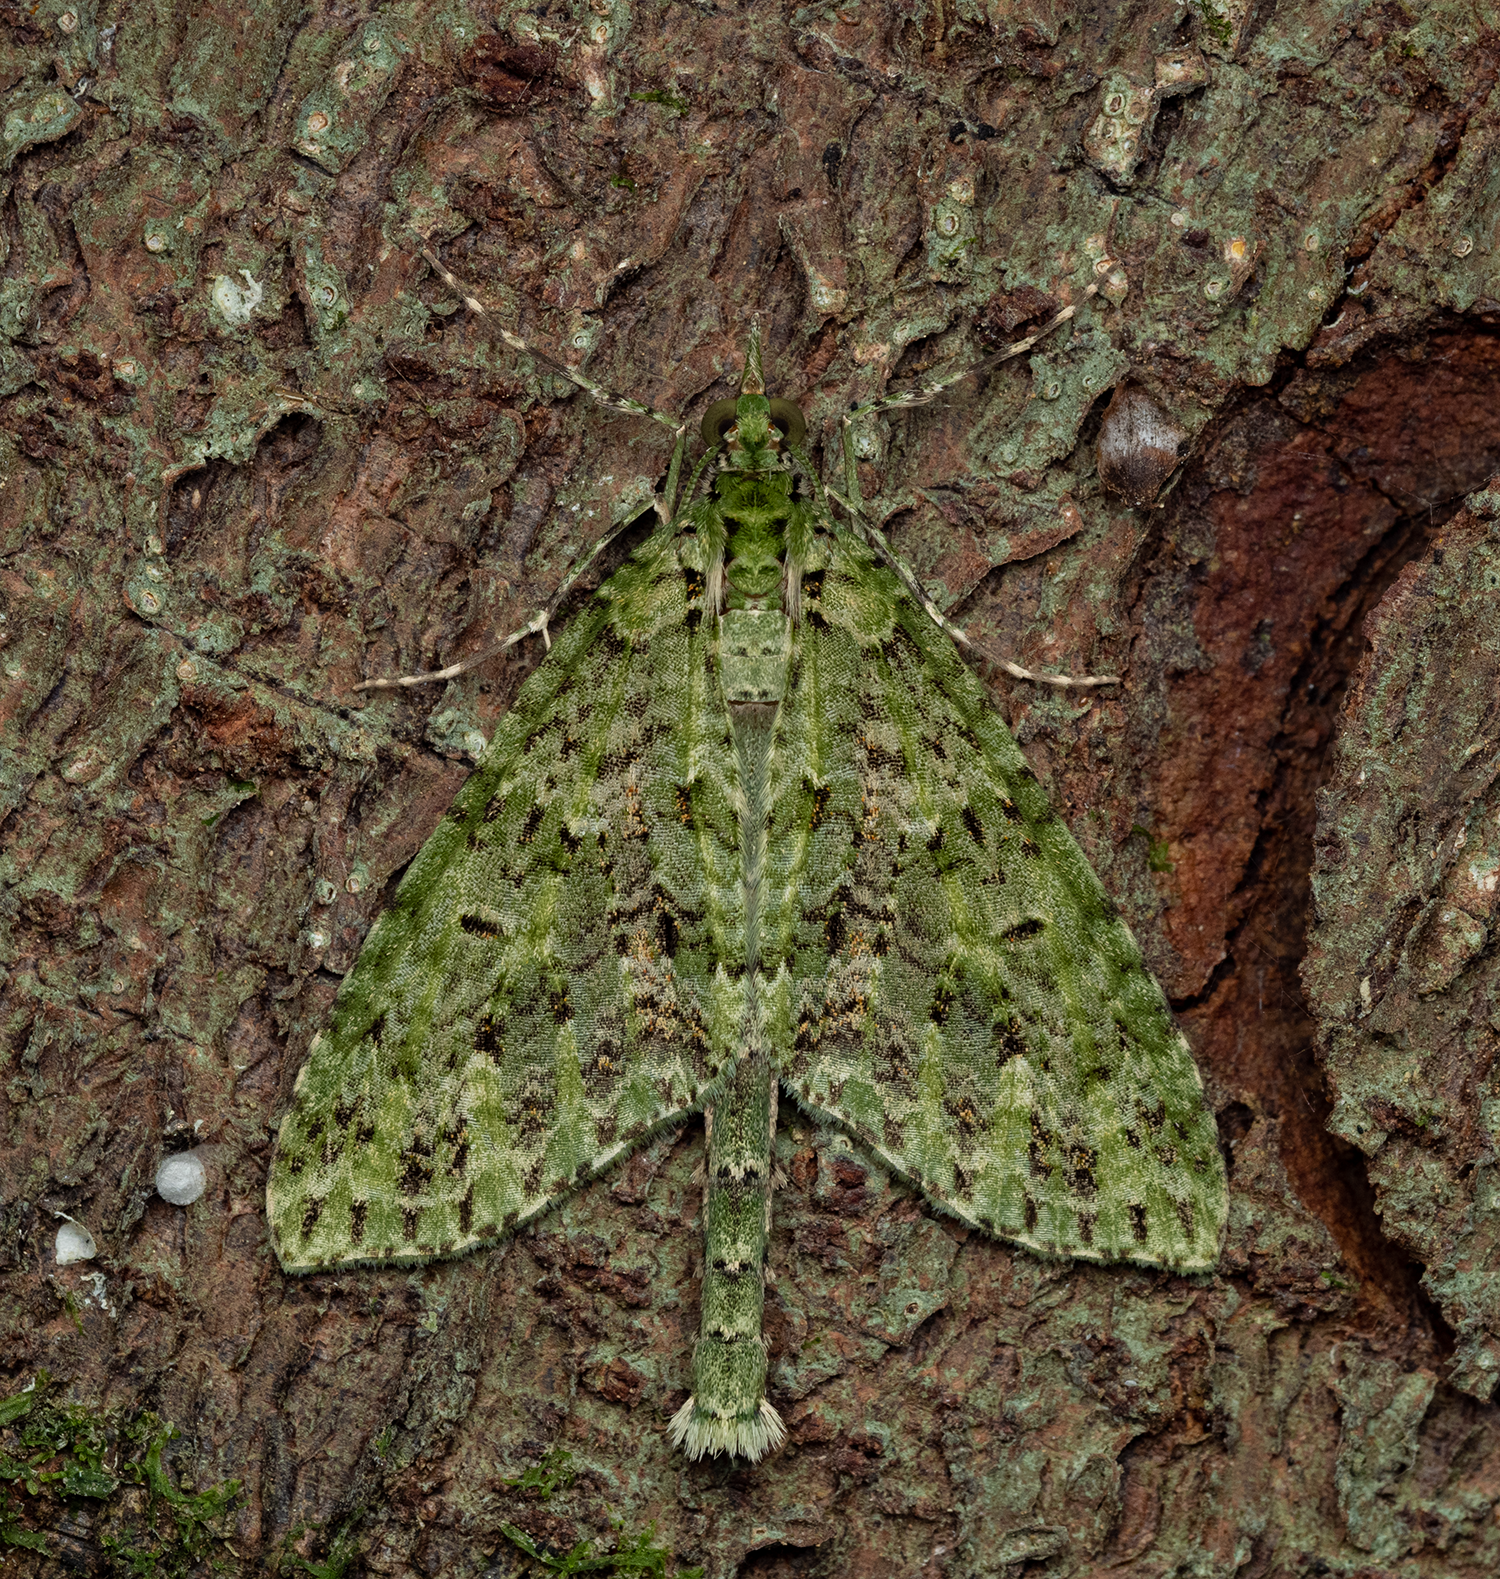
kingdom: Animalia
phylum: Arthropoda
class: Insecta
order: Lepidoptera
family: Geometridae
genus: Tatosoma
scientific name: Tatosoma tipulata
